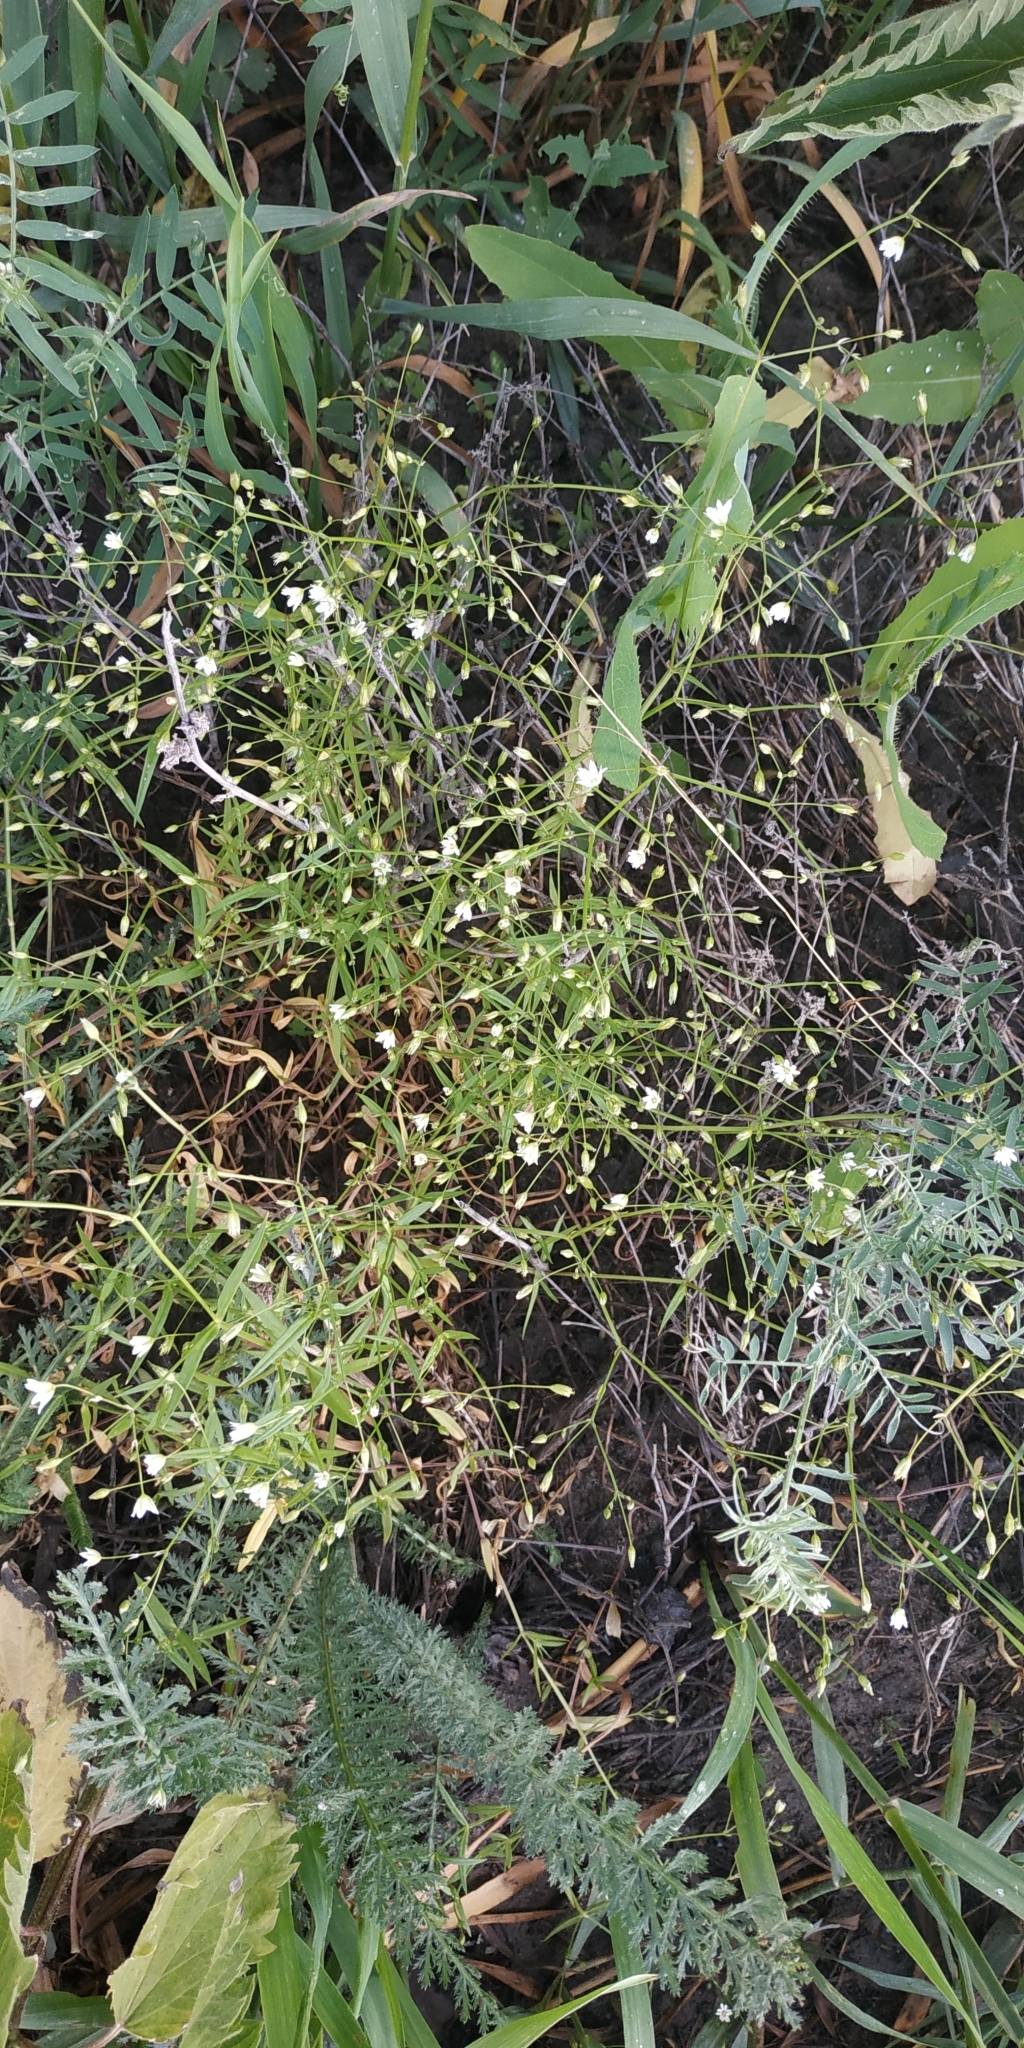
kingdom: Plantae
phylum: Tracheophyta
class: Magnoliopsida
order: Caryophyllales
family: Caryophyllaceae
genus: Stellaria
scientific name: Stellaria graminea
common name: Grass-like starwort
